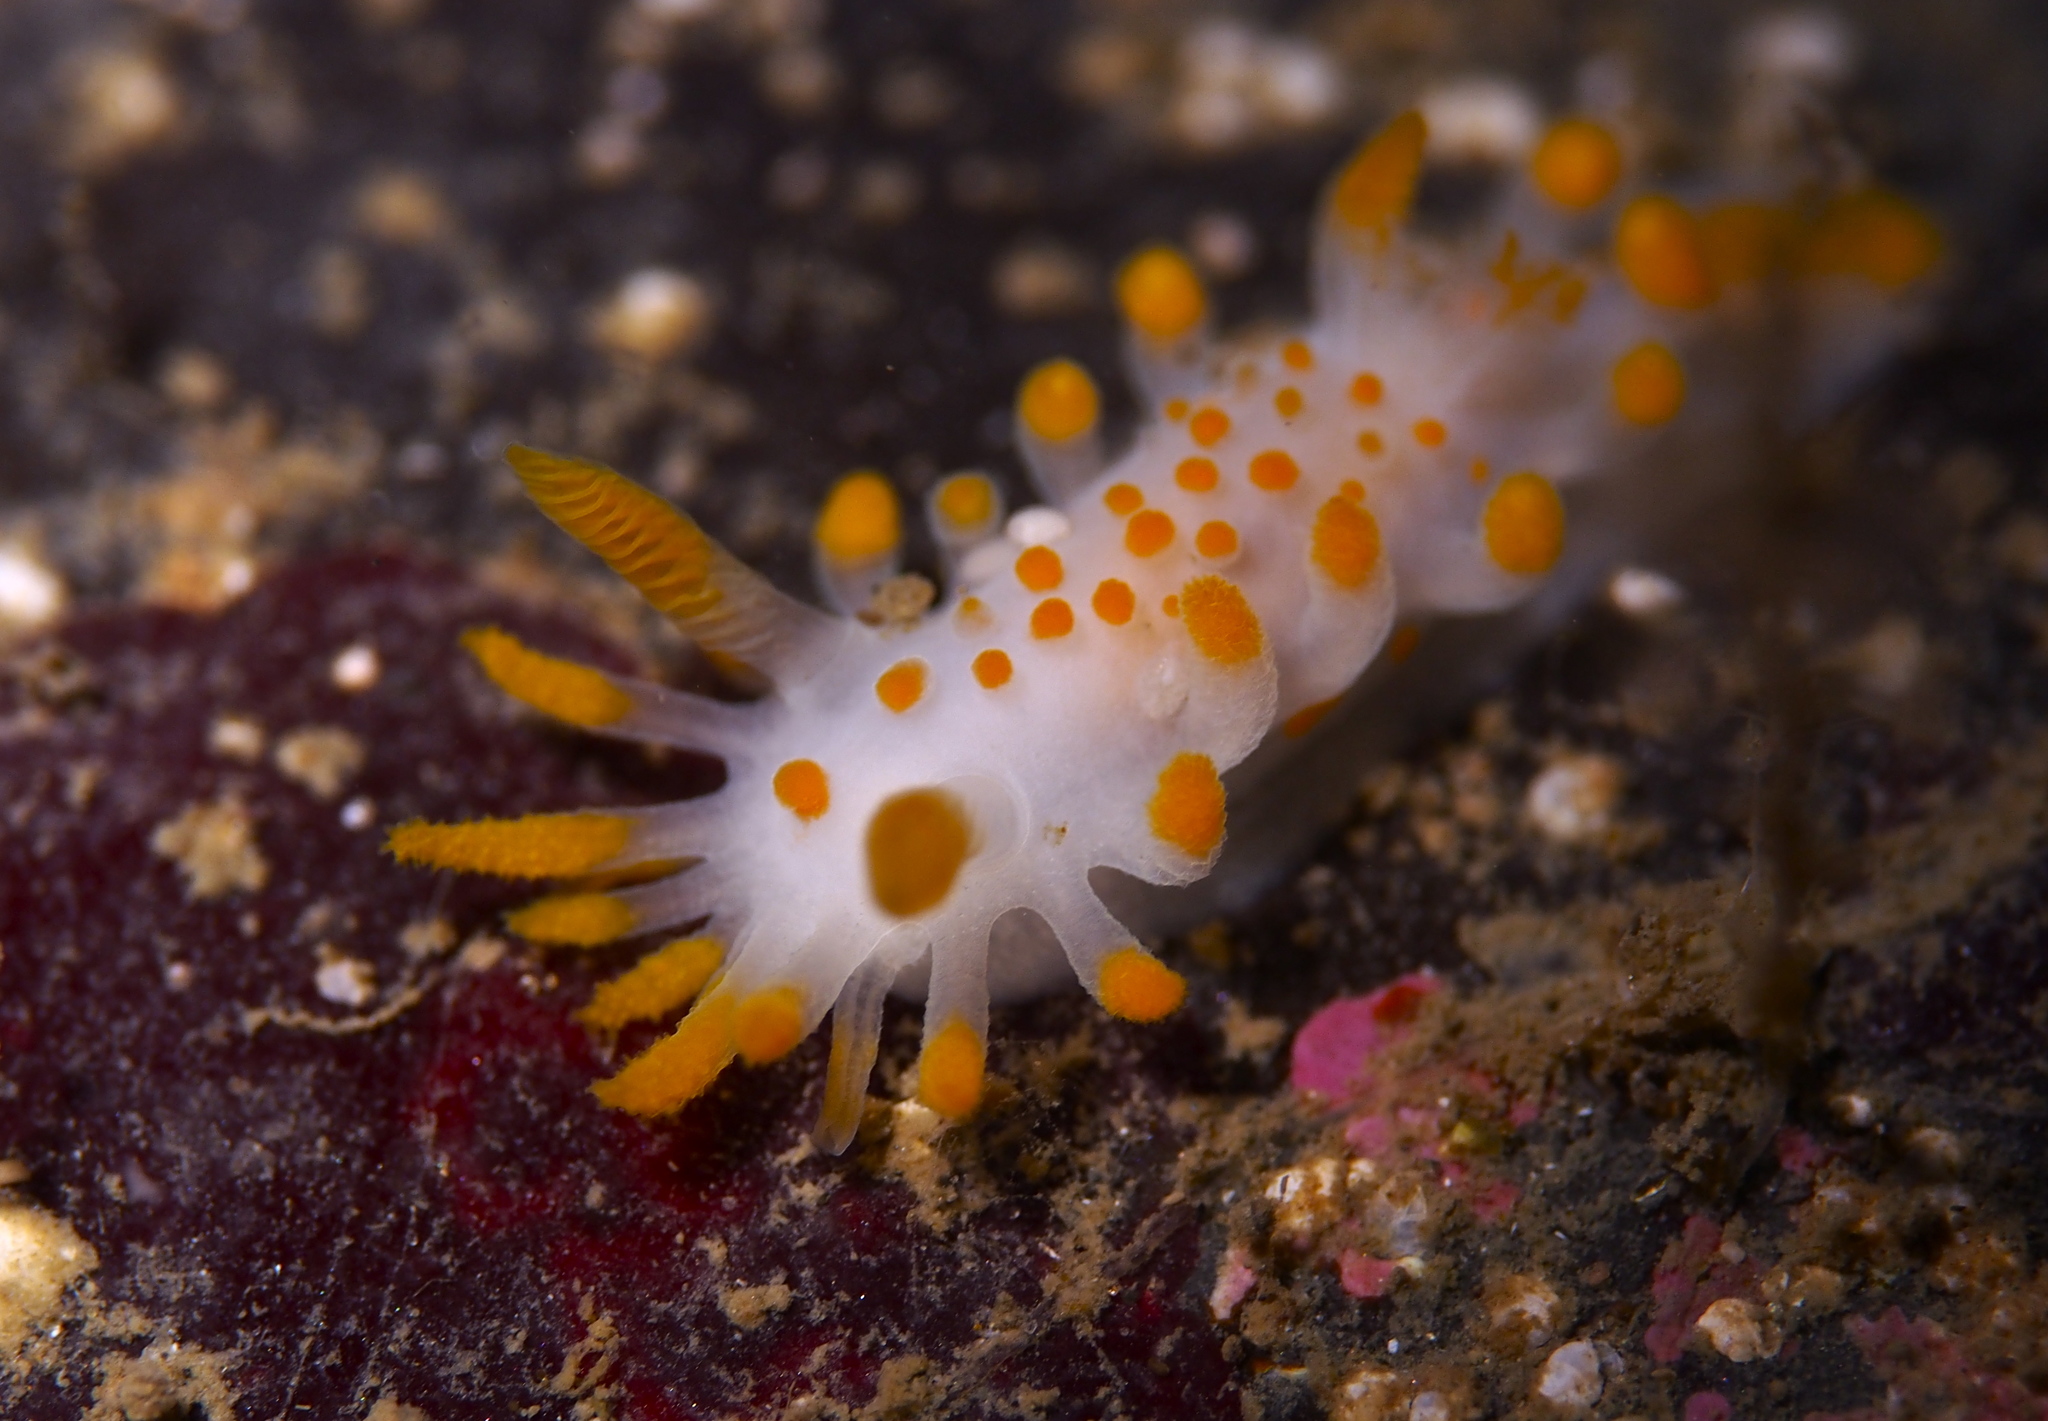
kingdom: Animalia
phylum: Mollusca
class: Gastropoda
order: Nudibranchia
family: Polyceridae
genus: Limacia
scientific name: Limacia clavigera
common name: Orange-clubbed sea slug
